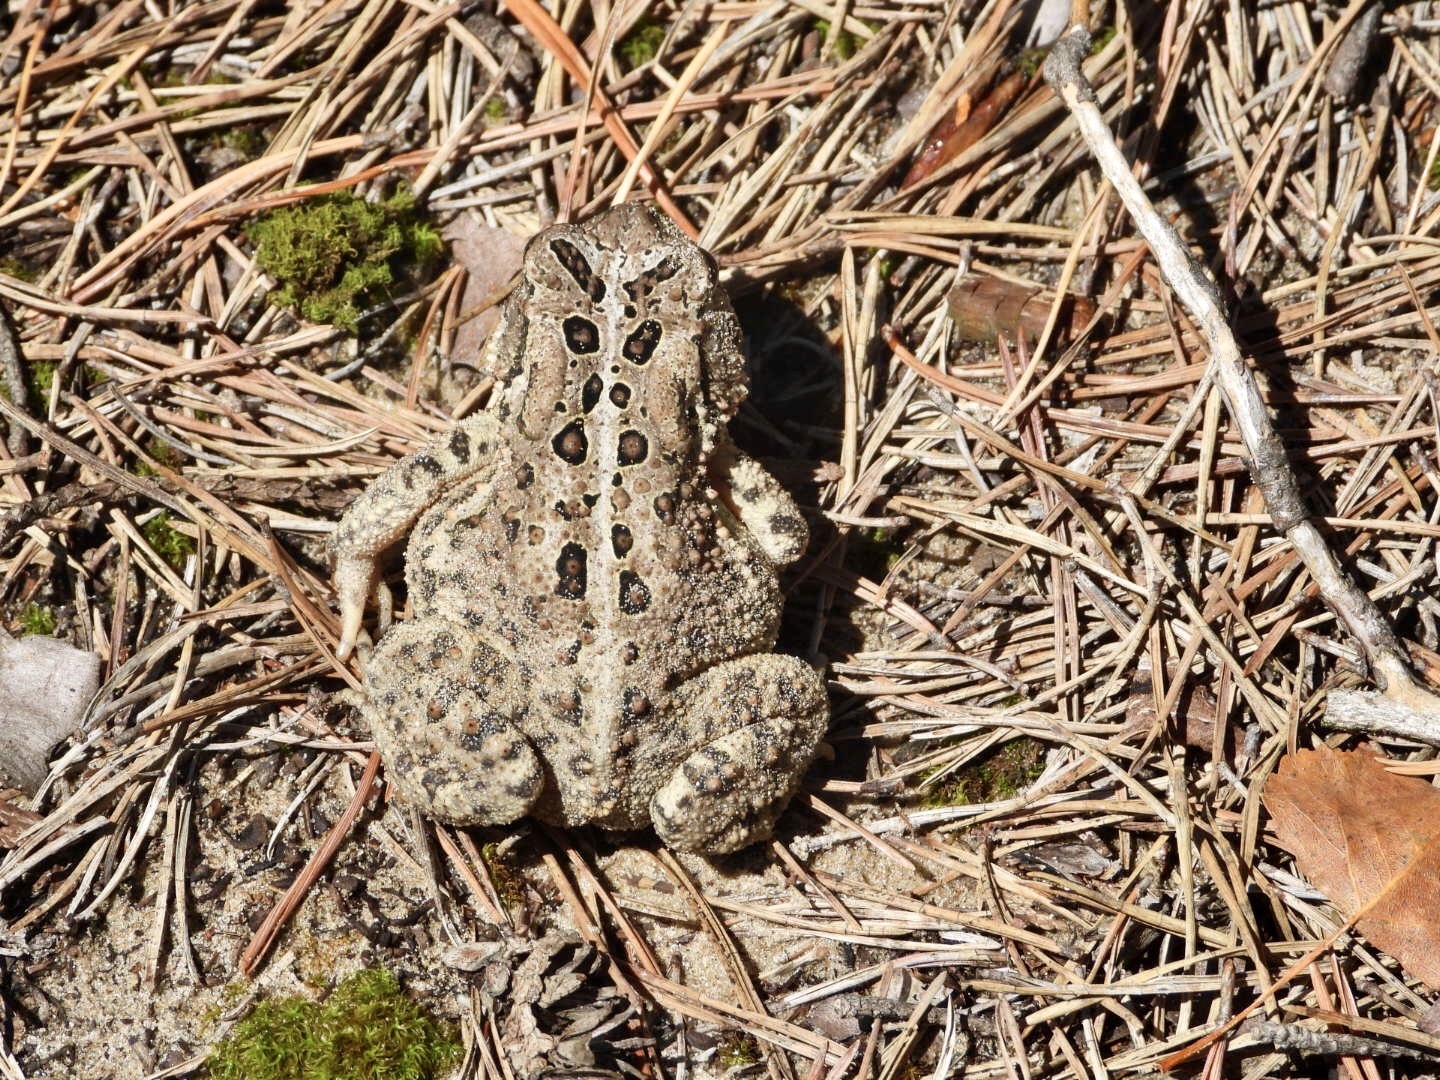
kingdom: Animalia
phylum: Chordata
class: Amphibia
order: Anura
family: Bufonidae
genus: Anaxyrus
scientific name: Anaxyrus americanus
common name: American toad
